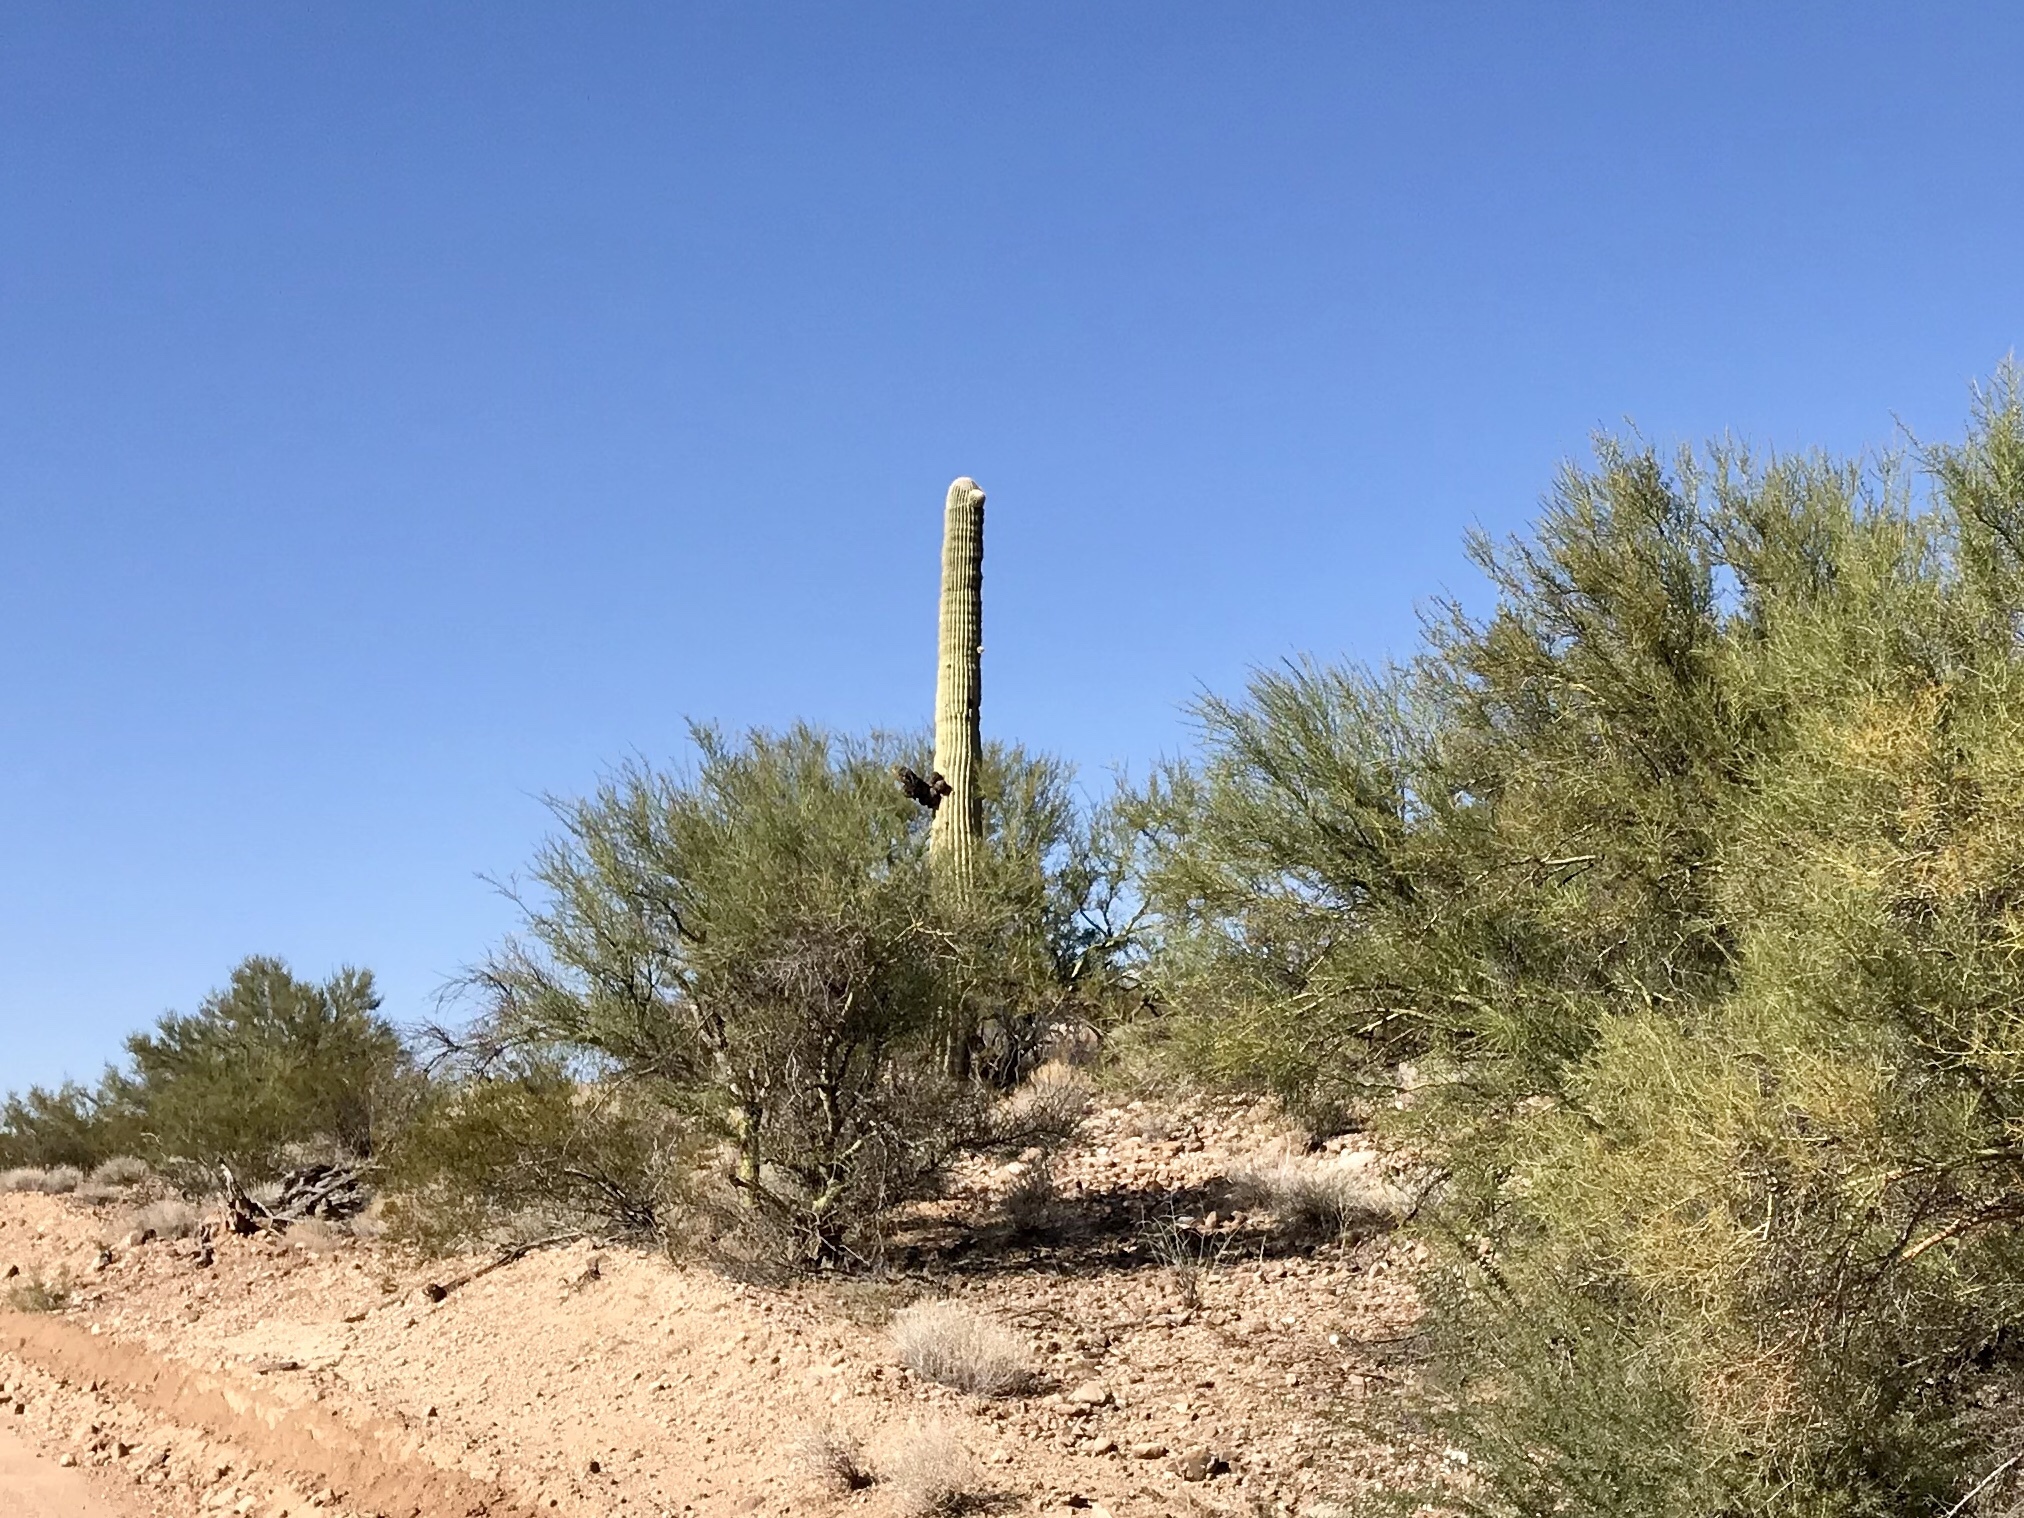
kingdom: Plantae
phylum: Tracheophyta
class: Magnoliopsida
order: Caryophyllales
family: Cactaceae
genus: Carnegiea
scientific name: Carnegiea gigantea
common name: Saguaro
